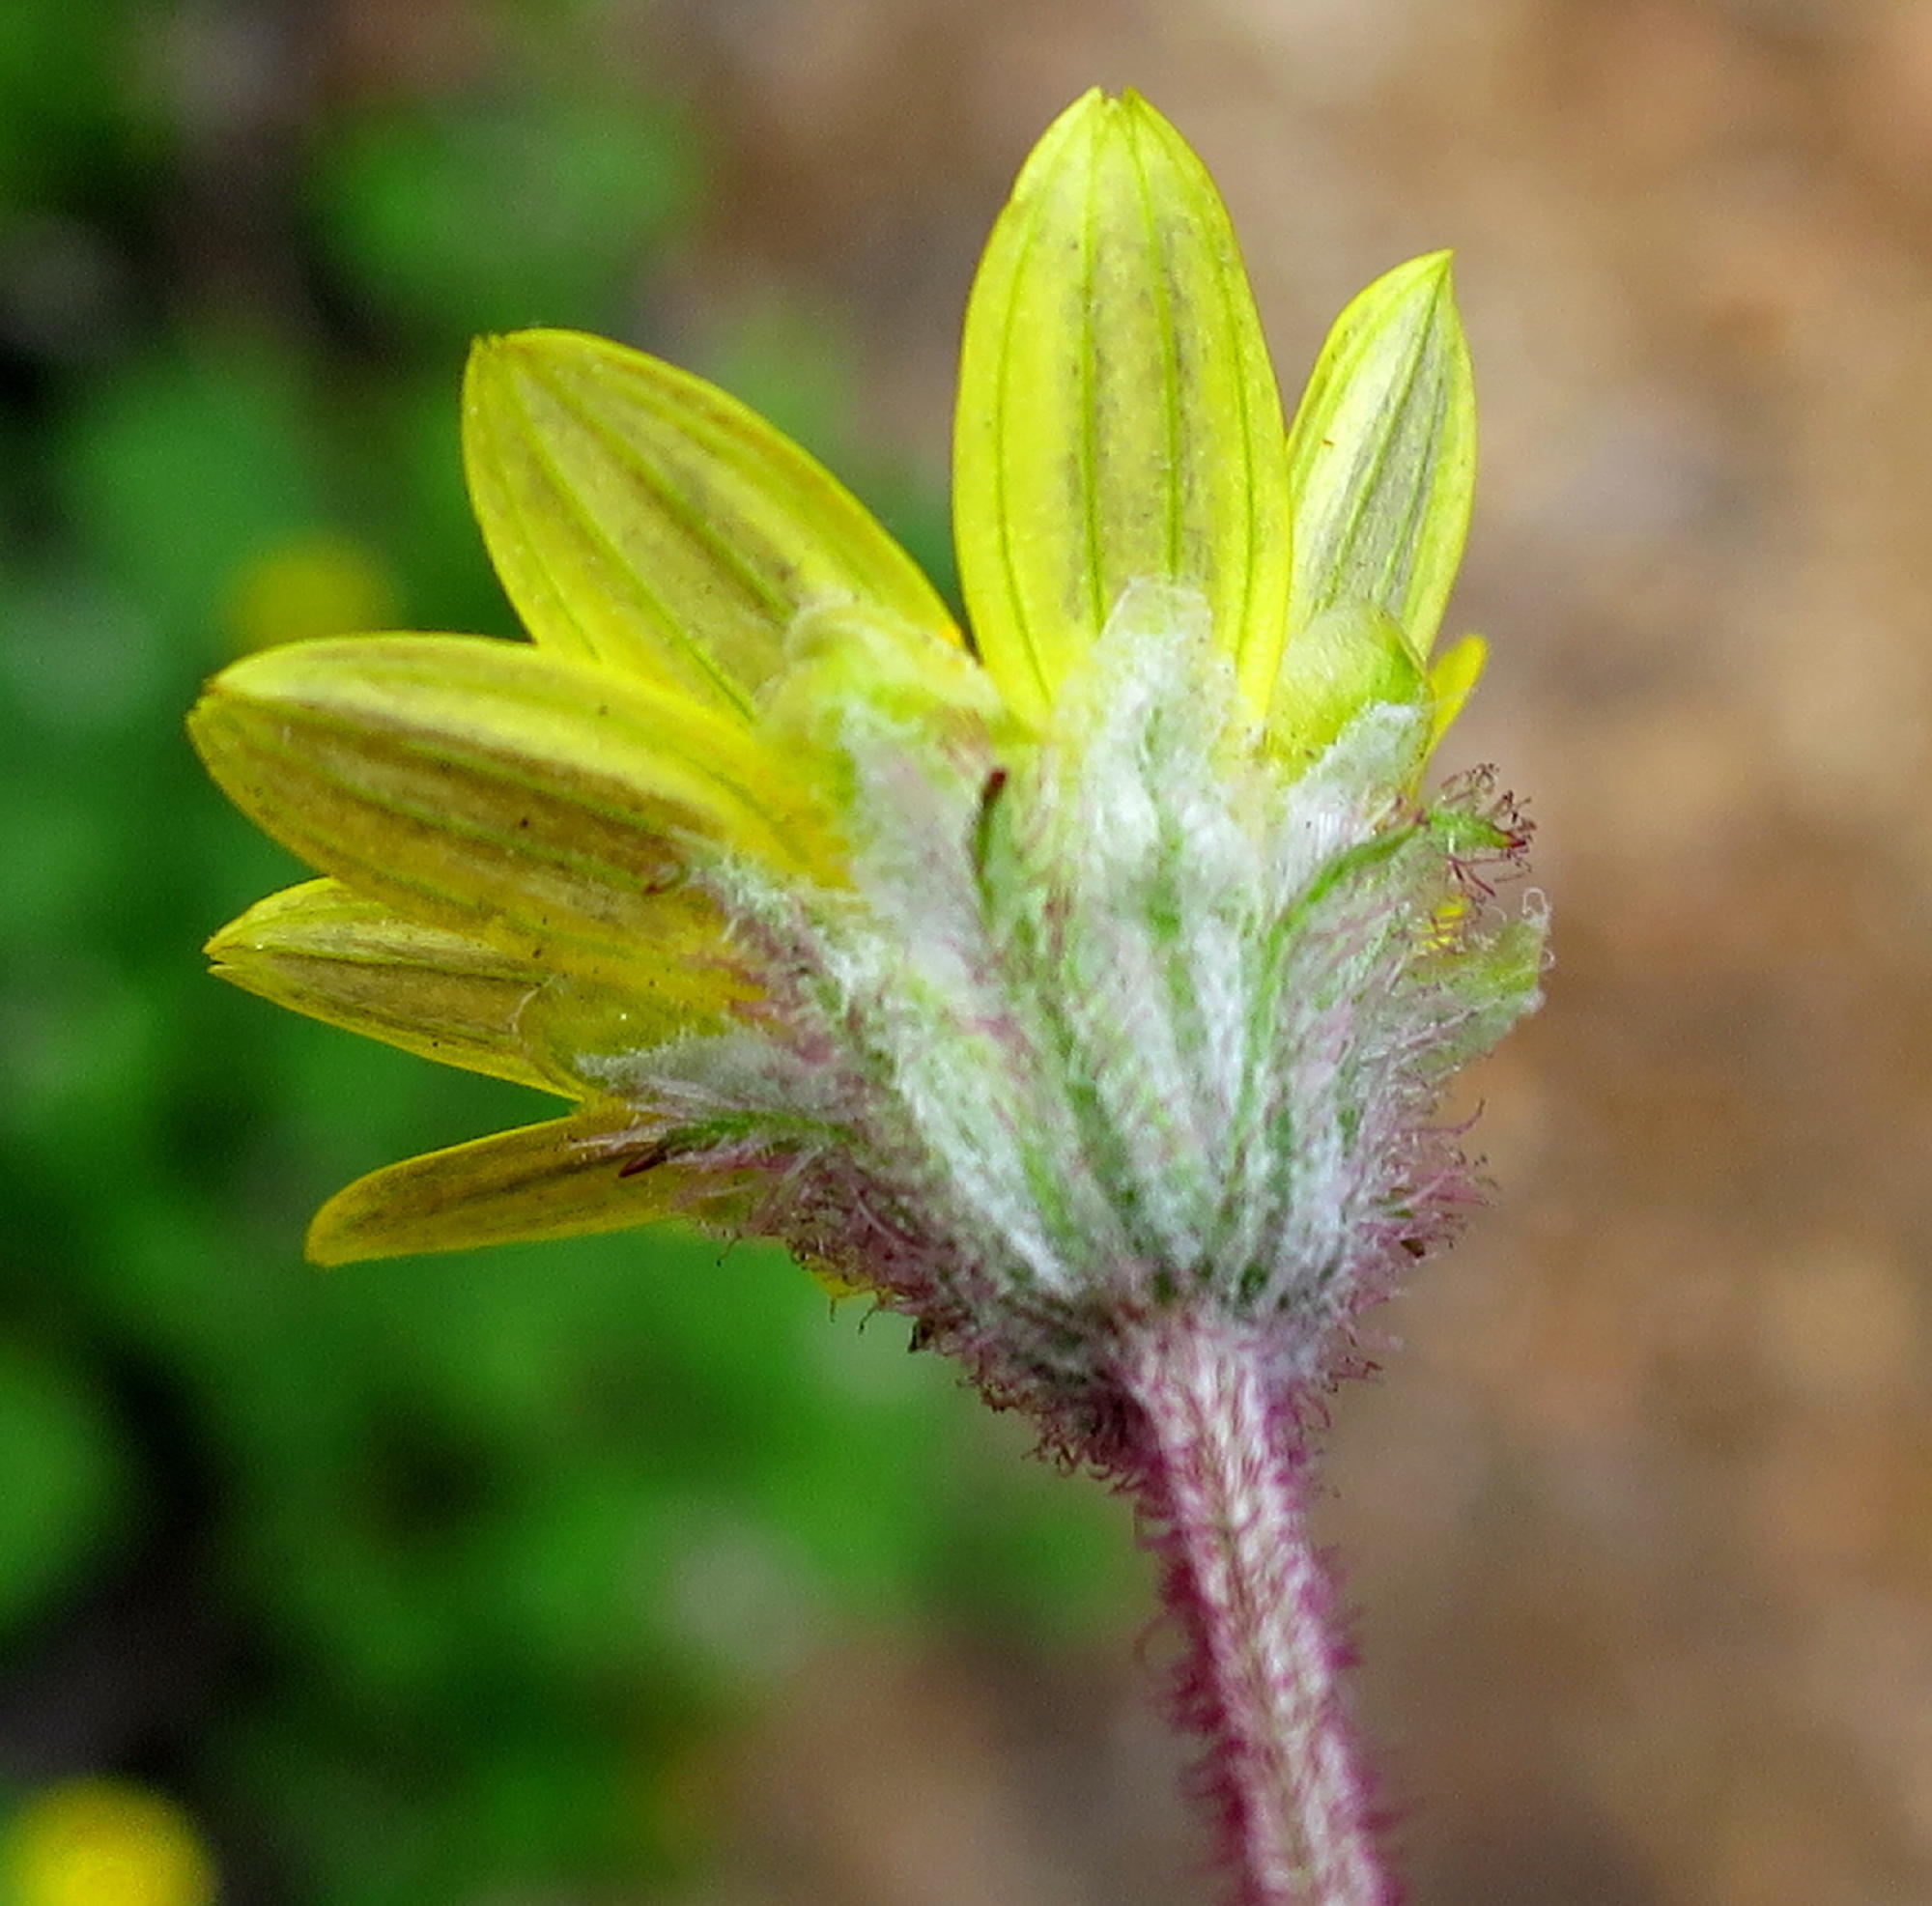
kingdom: Plantae
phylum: Tracheophyta
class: Magnoliopsida
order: Asterales
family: Asteraceae
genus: Arctotis
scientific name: Arctotis perfoliata
